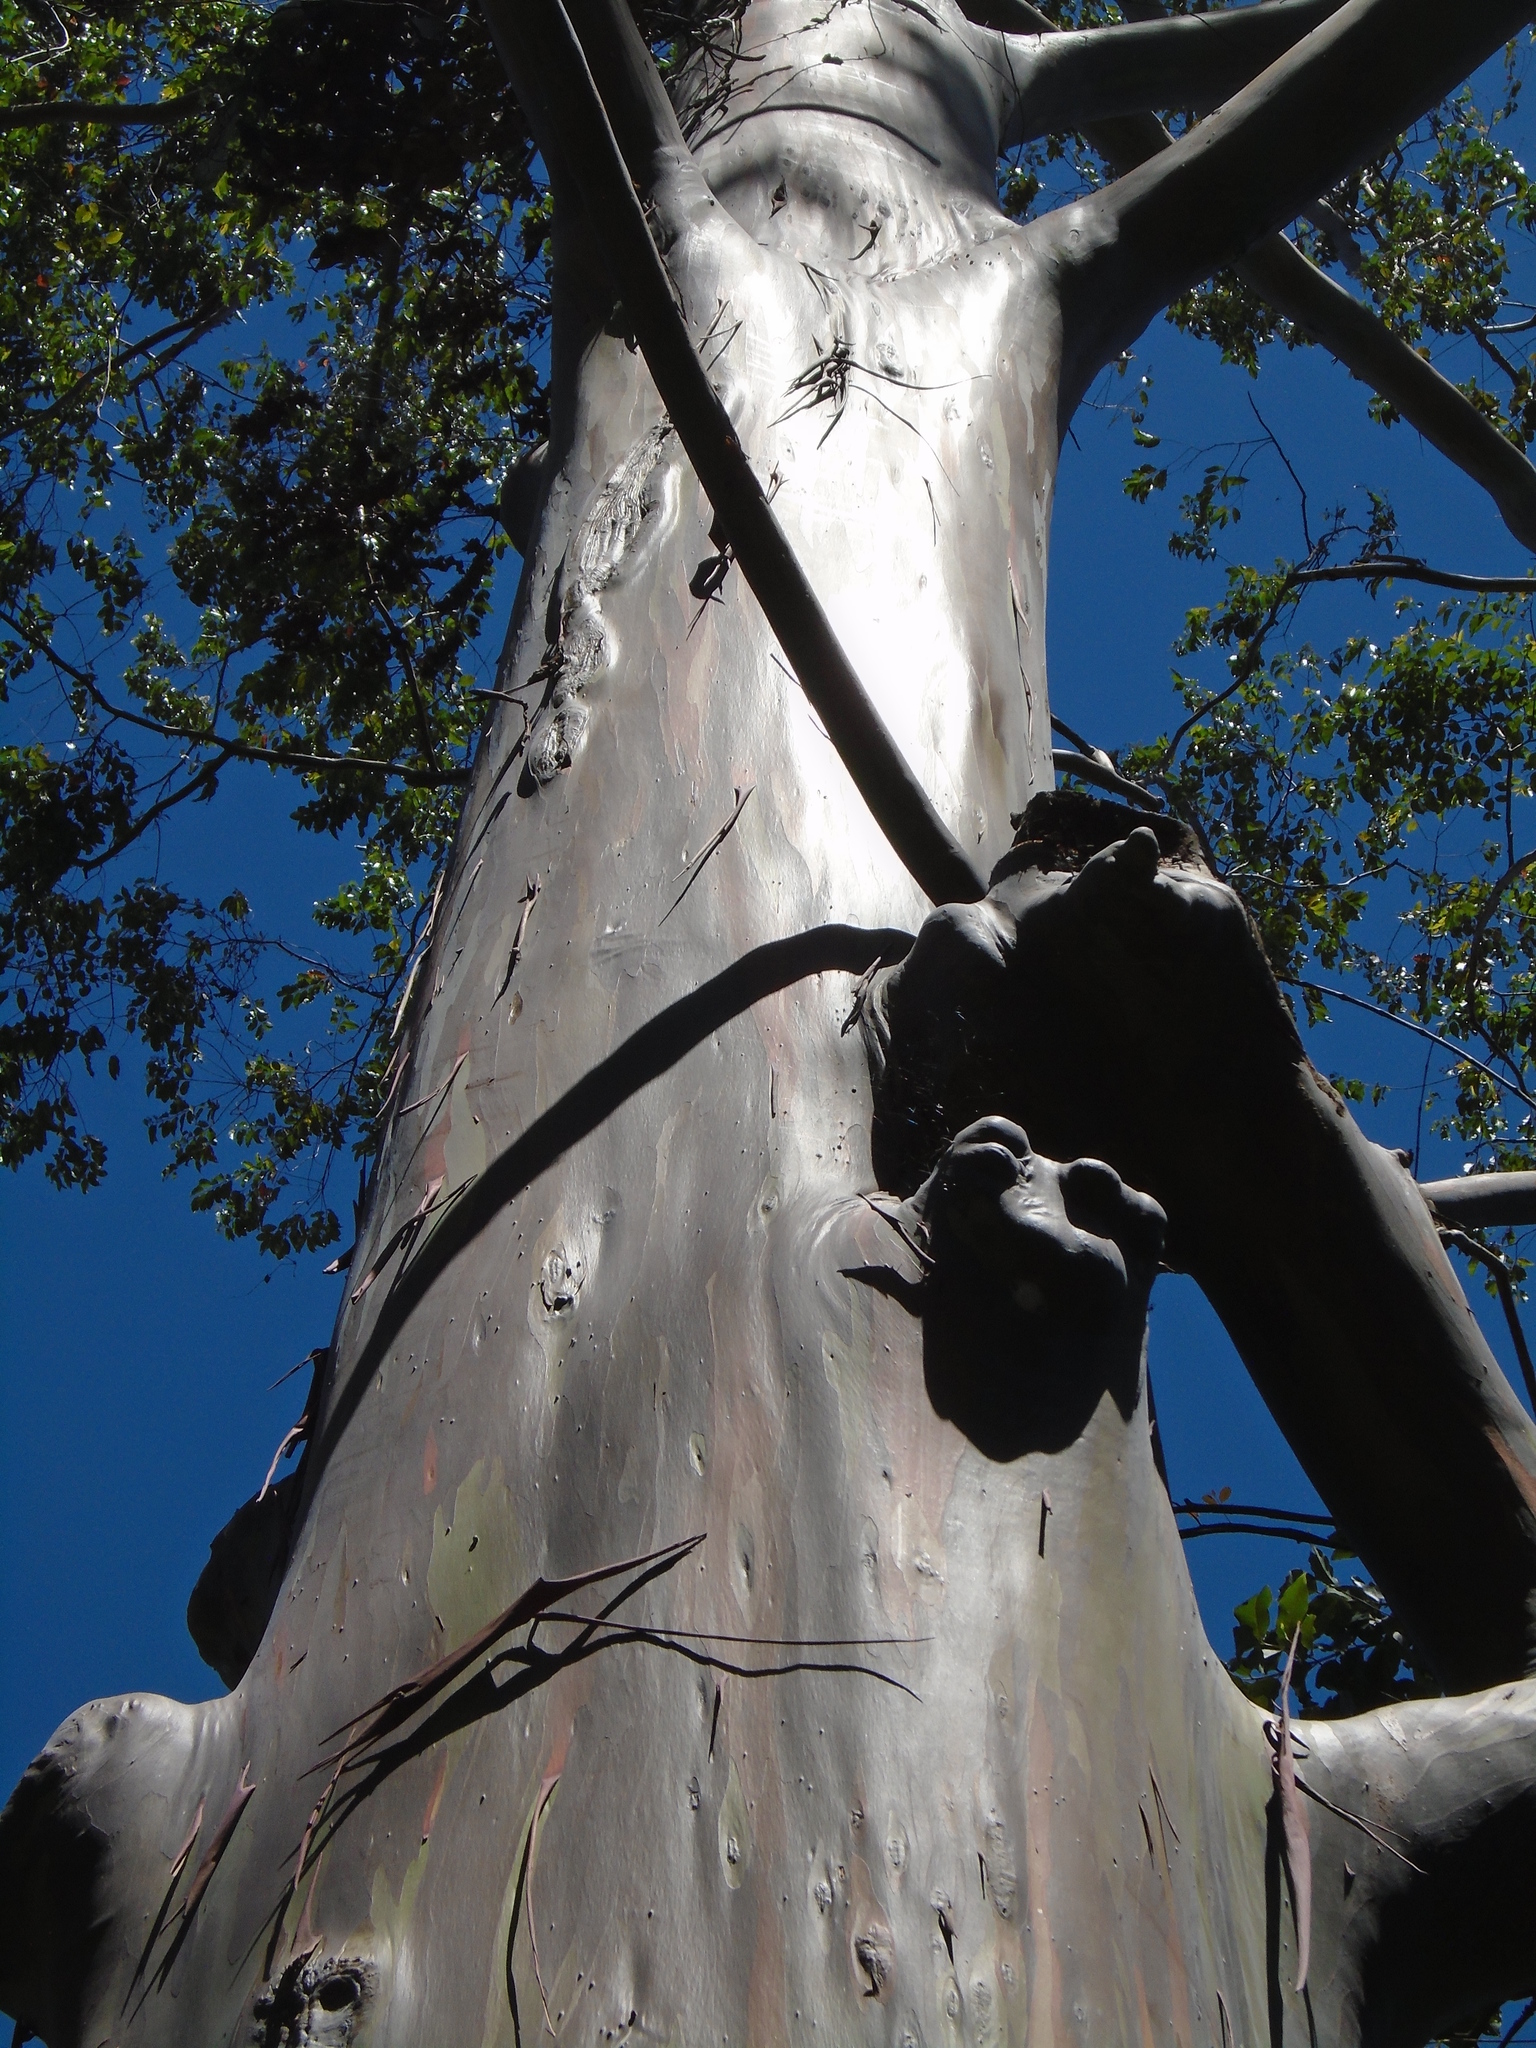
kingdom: Plantae
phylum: Tracheophyta
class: Magnoliopsida
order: Myrtales
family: Myrtaceae
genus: Eucalyptus
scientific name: Eucalyptus deglupta
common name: Mindanao gum
